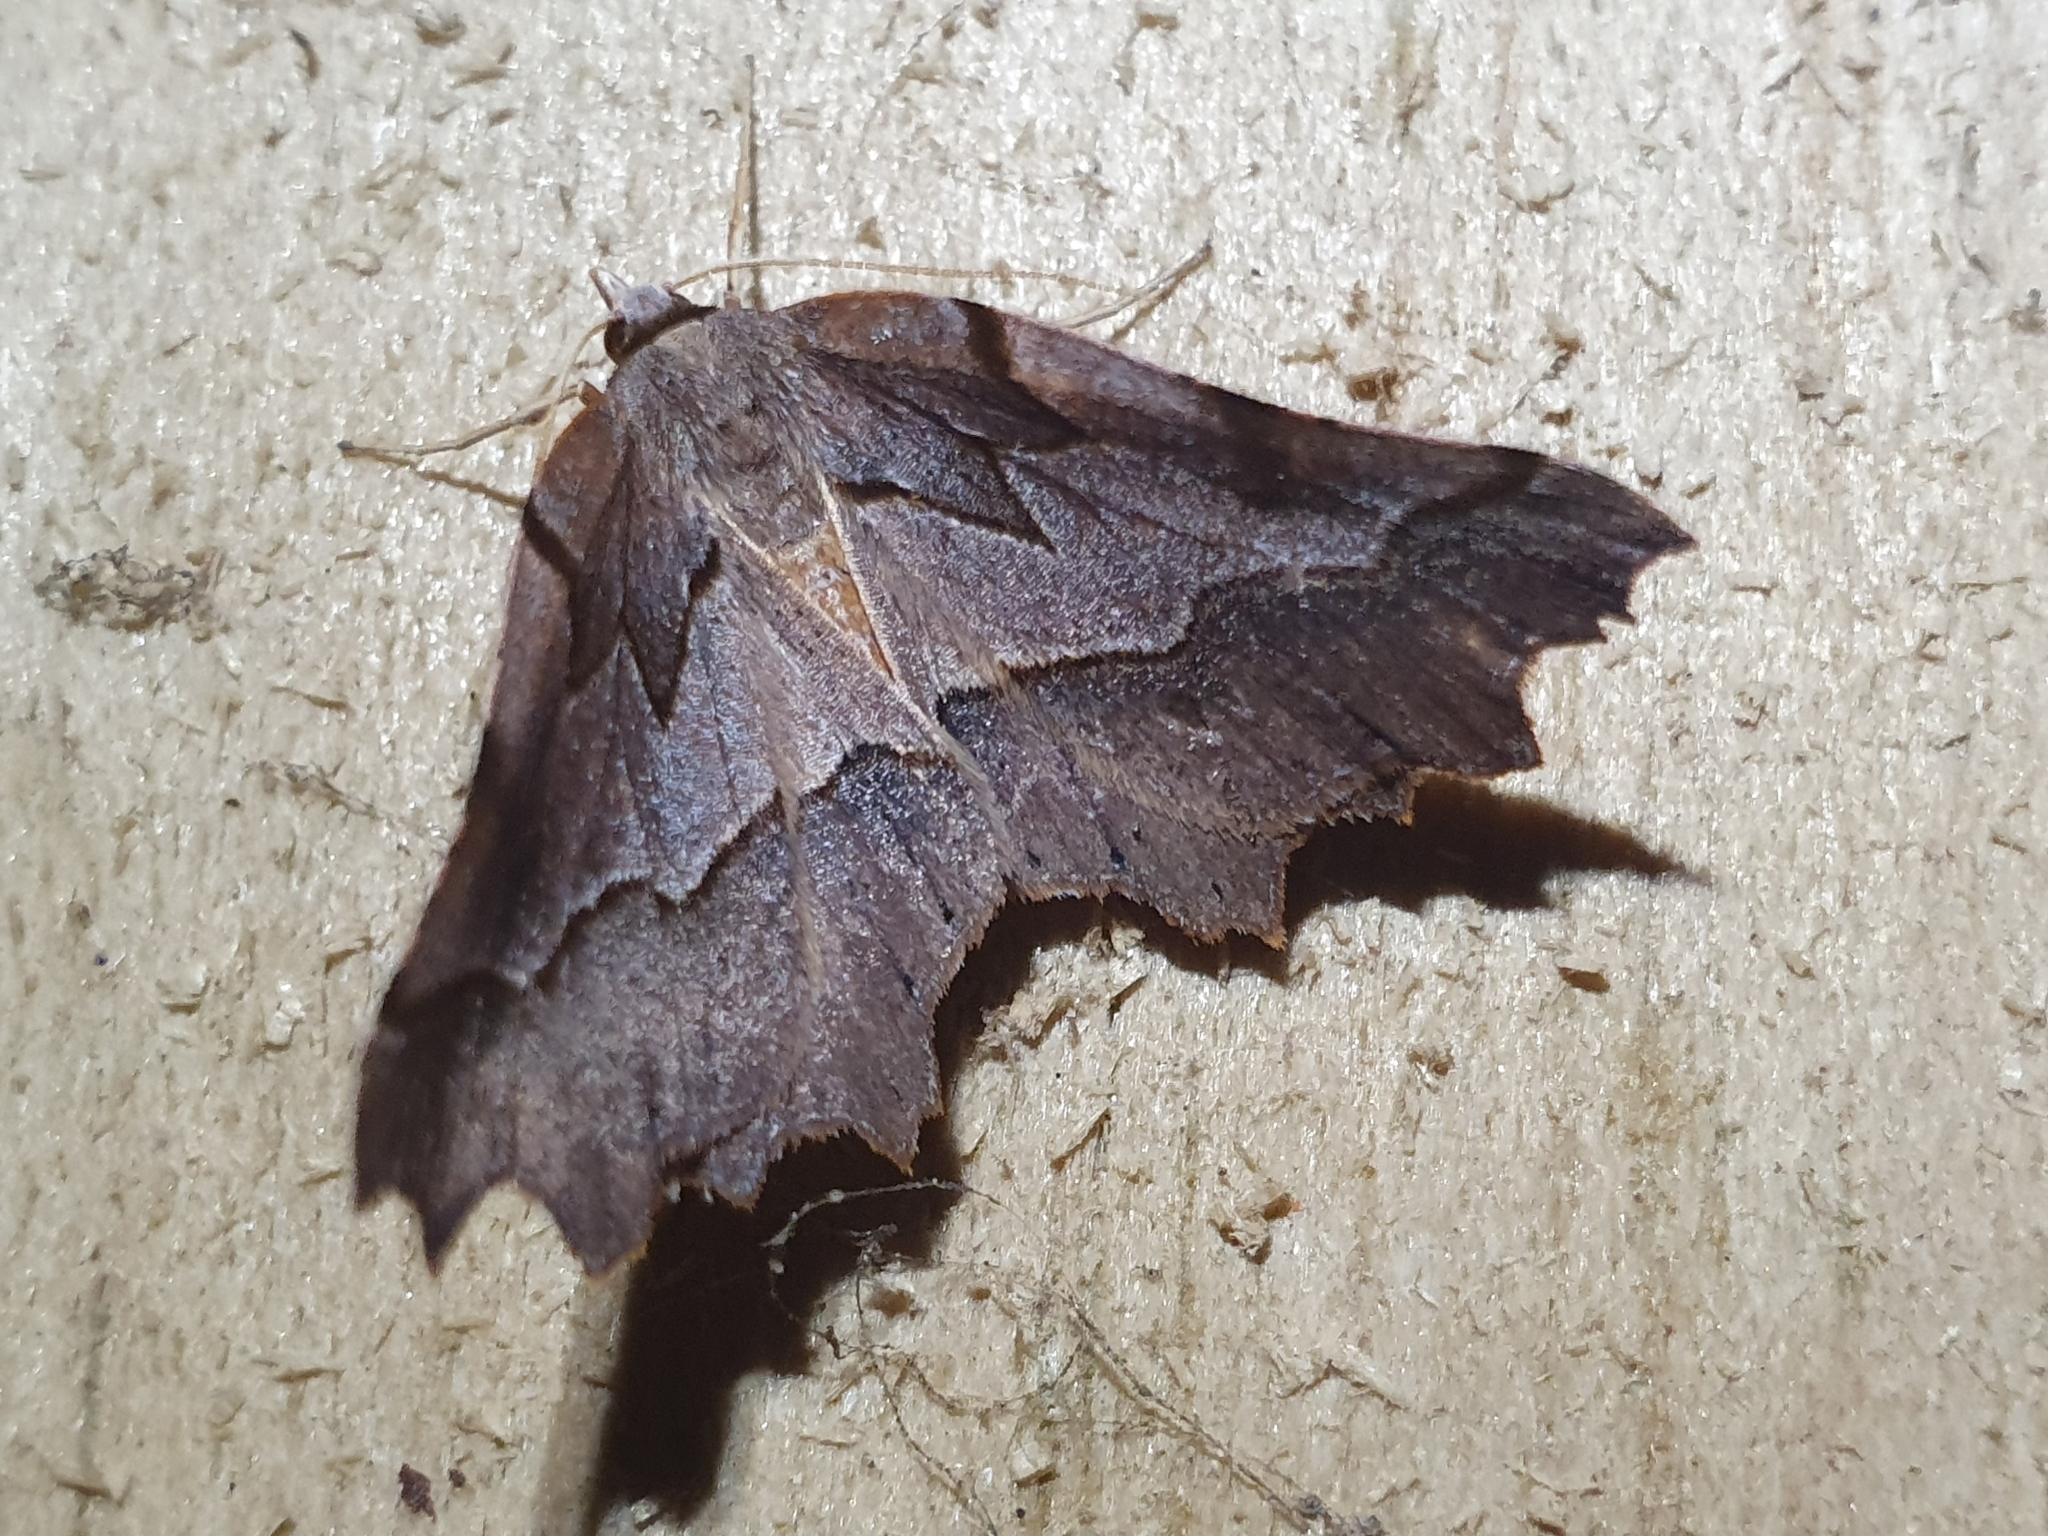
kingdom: Animalia
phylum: Arthropoda
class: Insecta
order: Lepidoptera
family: Geometridae
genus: Ischalis
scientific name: Ischalis fortinata
